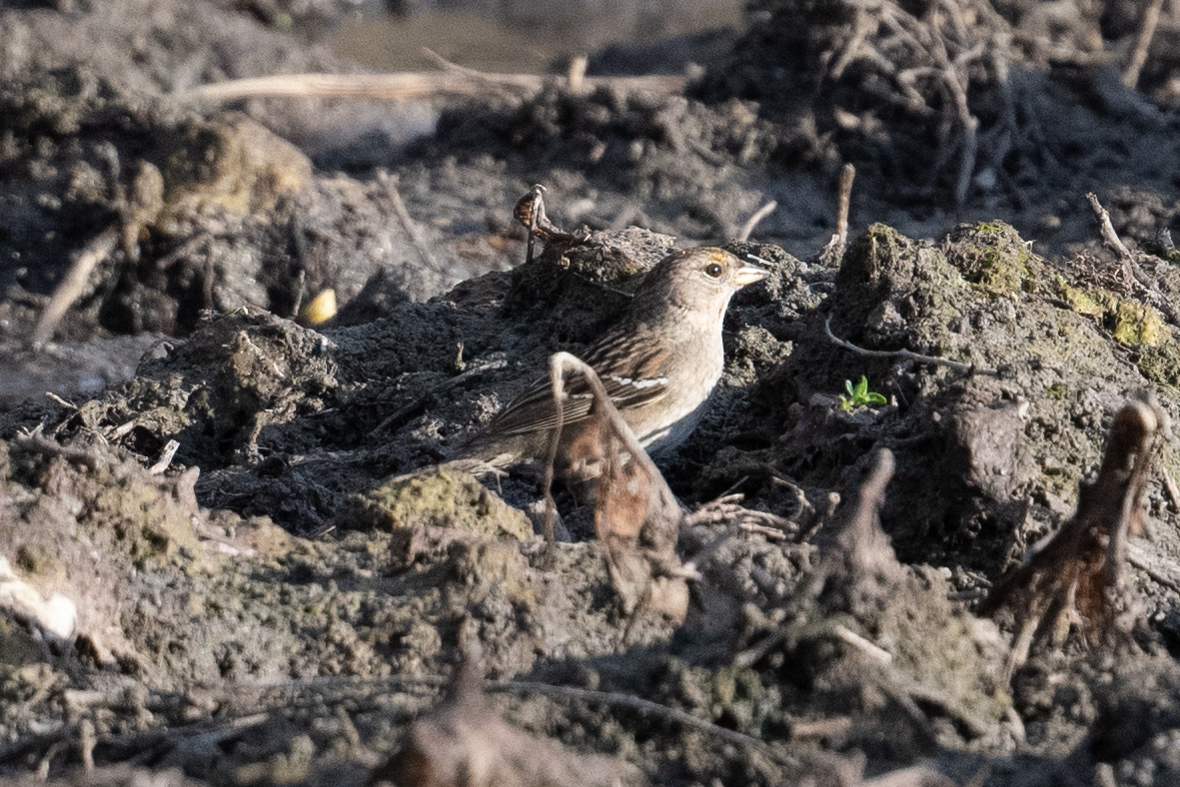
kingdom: Animalia
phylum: Chordata
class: Aves
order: Passeriformes
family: Passerellidae
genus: Zonotrichia
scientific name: Zonotrichia atricapilla
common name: Golden-crowned sparrow
